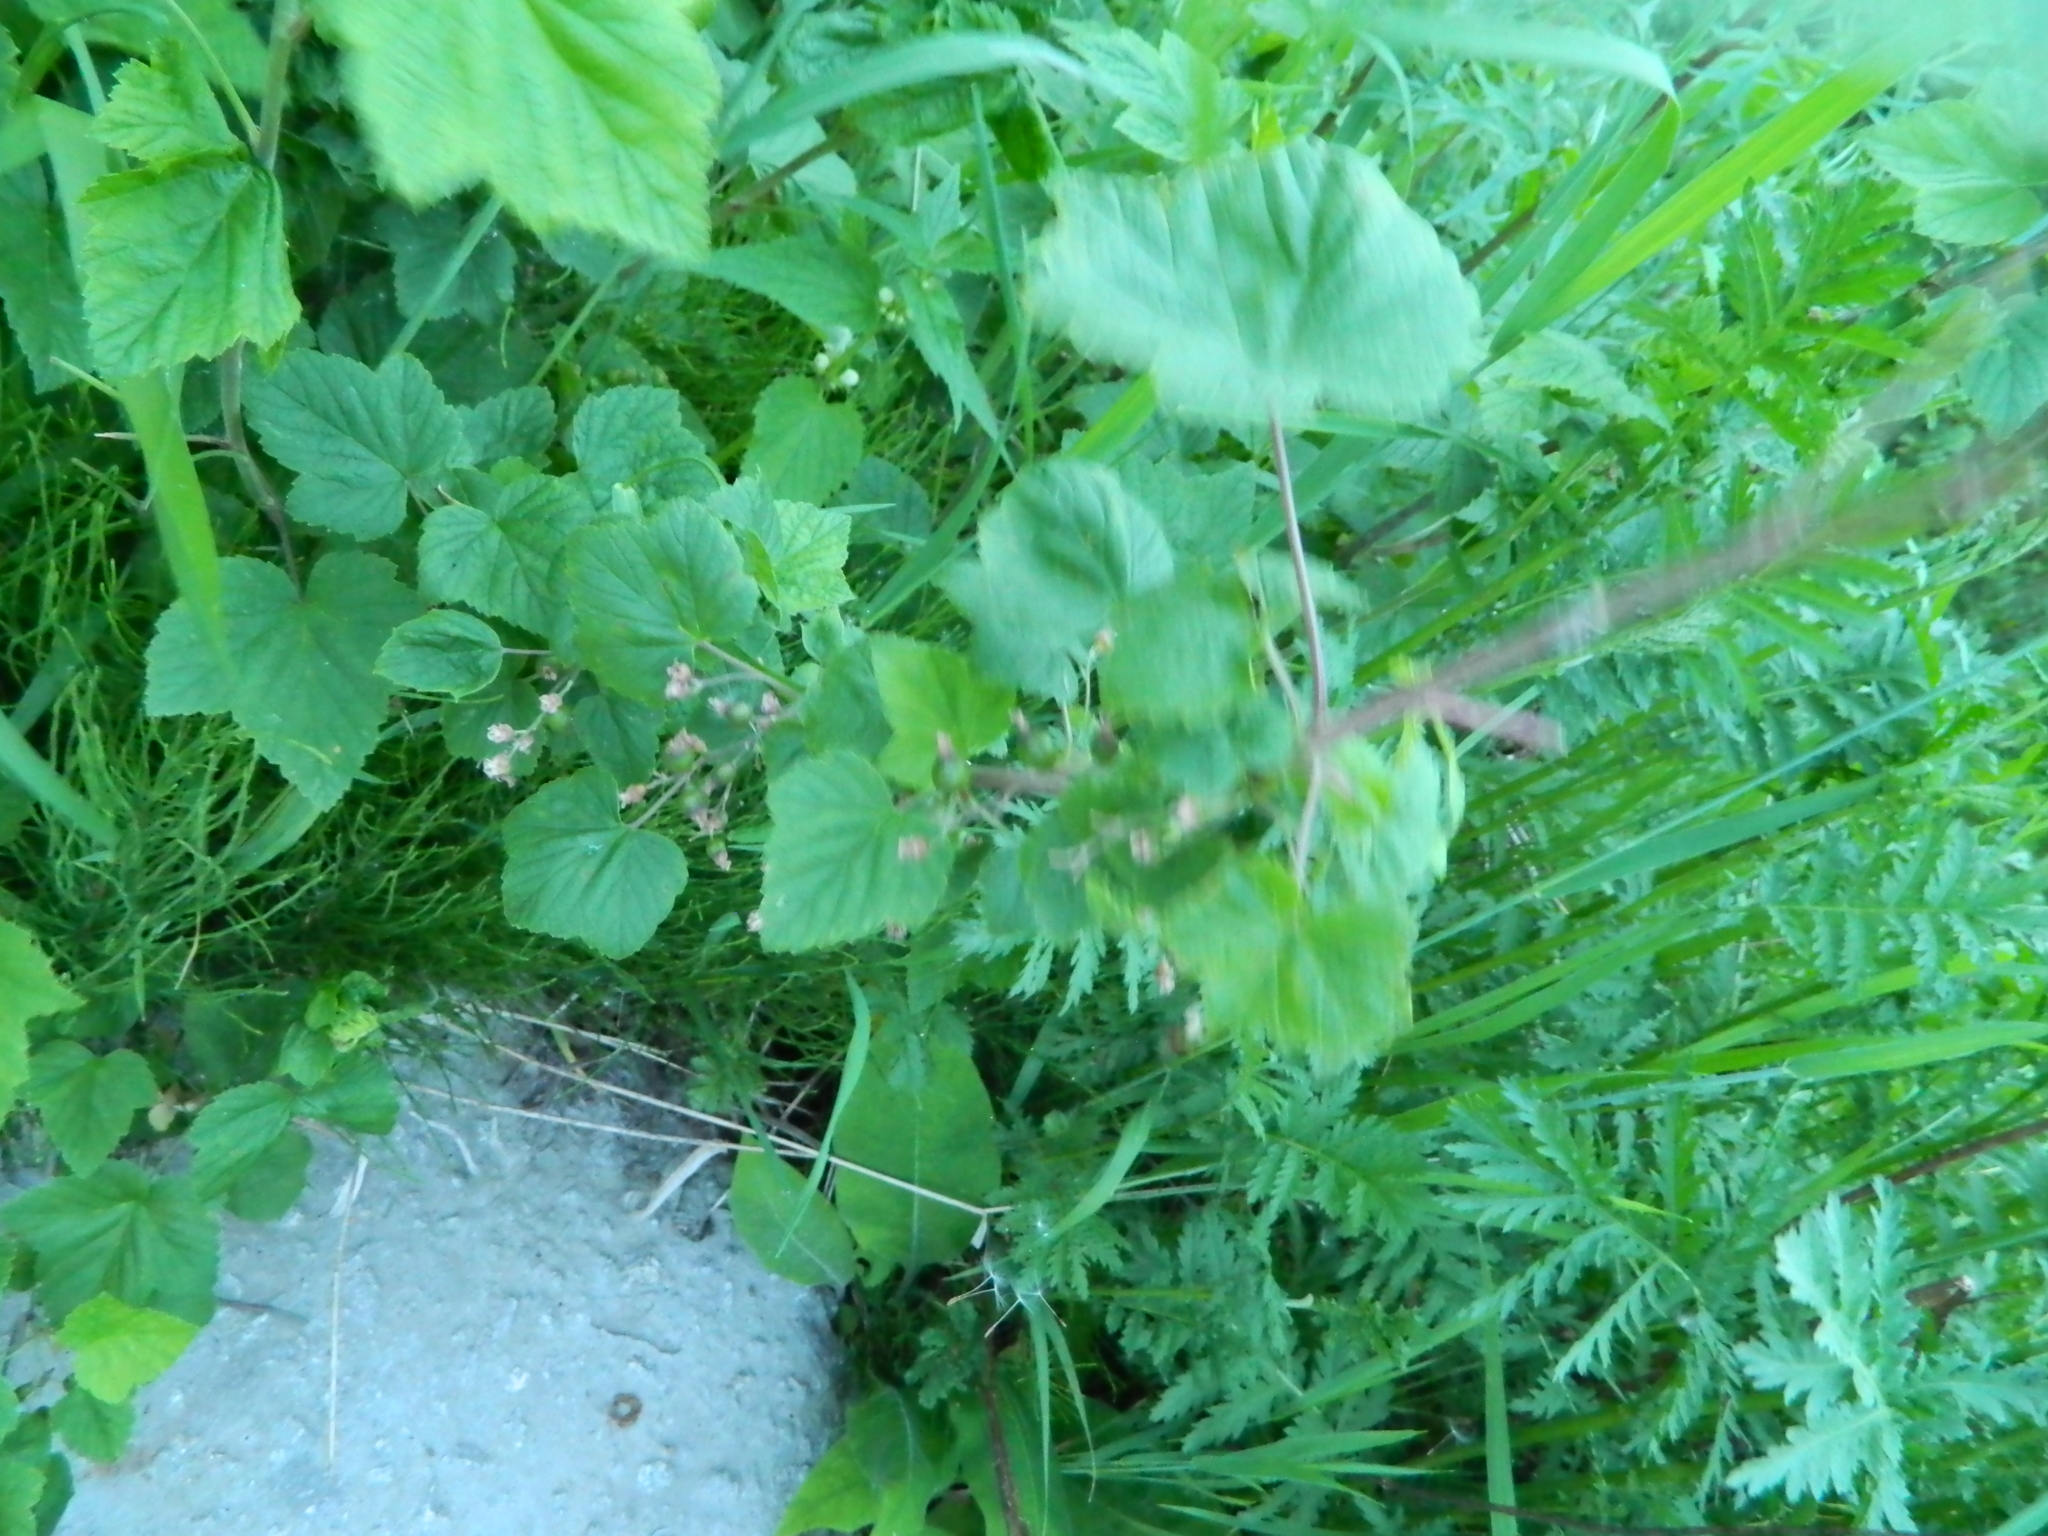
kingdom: Plantae
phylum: Tracheophyta
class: Magnoliopsida
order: Saxifragales
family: Grossulariaceae
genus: Ribes
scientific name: Ribes nigrum
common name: Black currant
